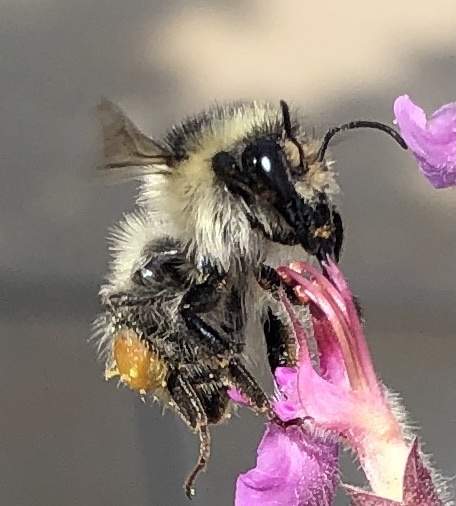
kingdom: Animalia
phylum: Arthropoda
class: Insecta
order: Hymenoptera
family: Apidae
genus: Bombus
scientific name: Bombus sylvarum
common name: Shrill carder bee
